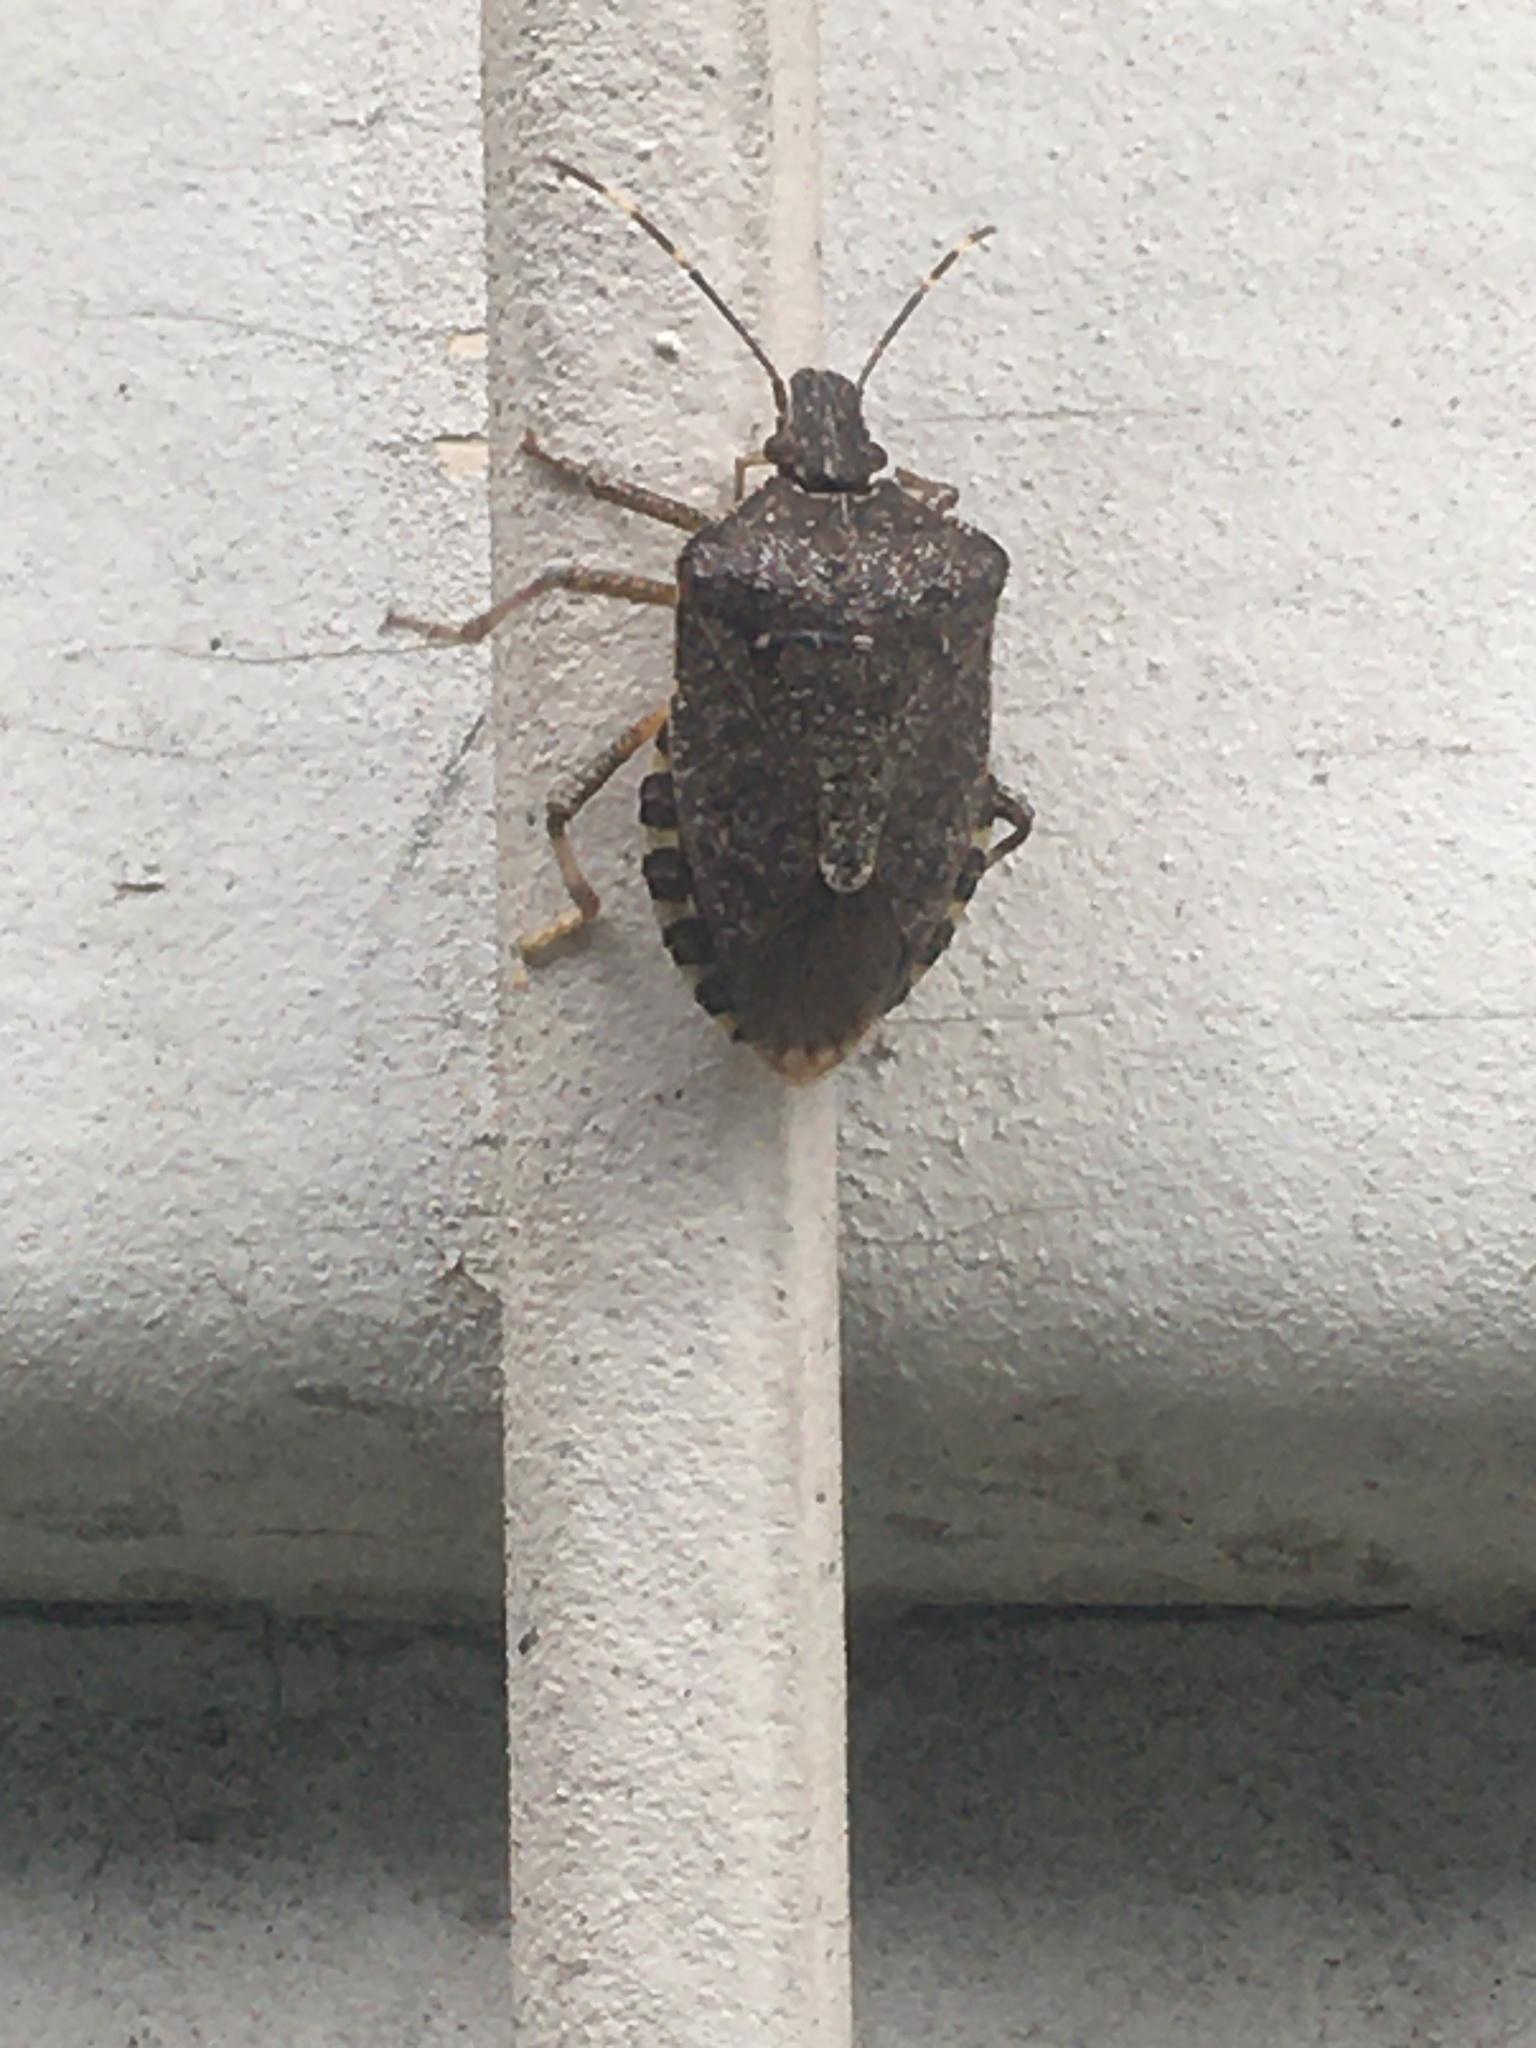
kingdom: Animalia
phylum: Arthropoda
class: Insecta
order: Hemiptera
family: Pentatomidae
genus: Halyomorpha
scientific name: Halyomorpha halys
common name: Brown marmorated stink bug
